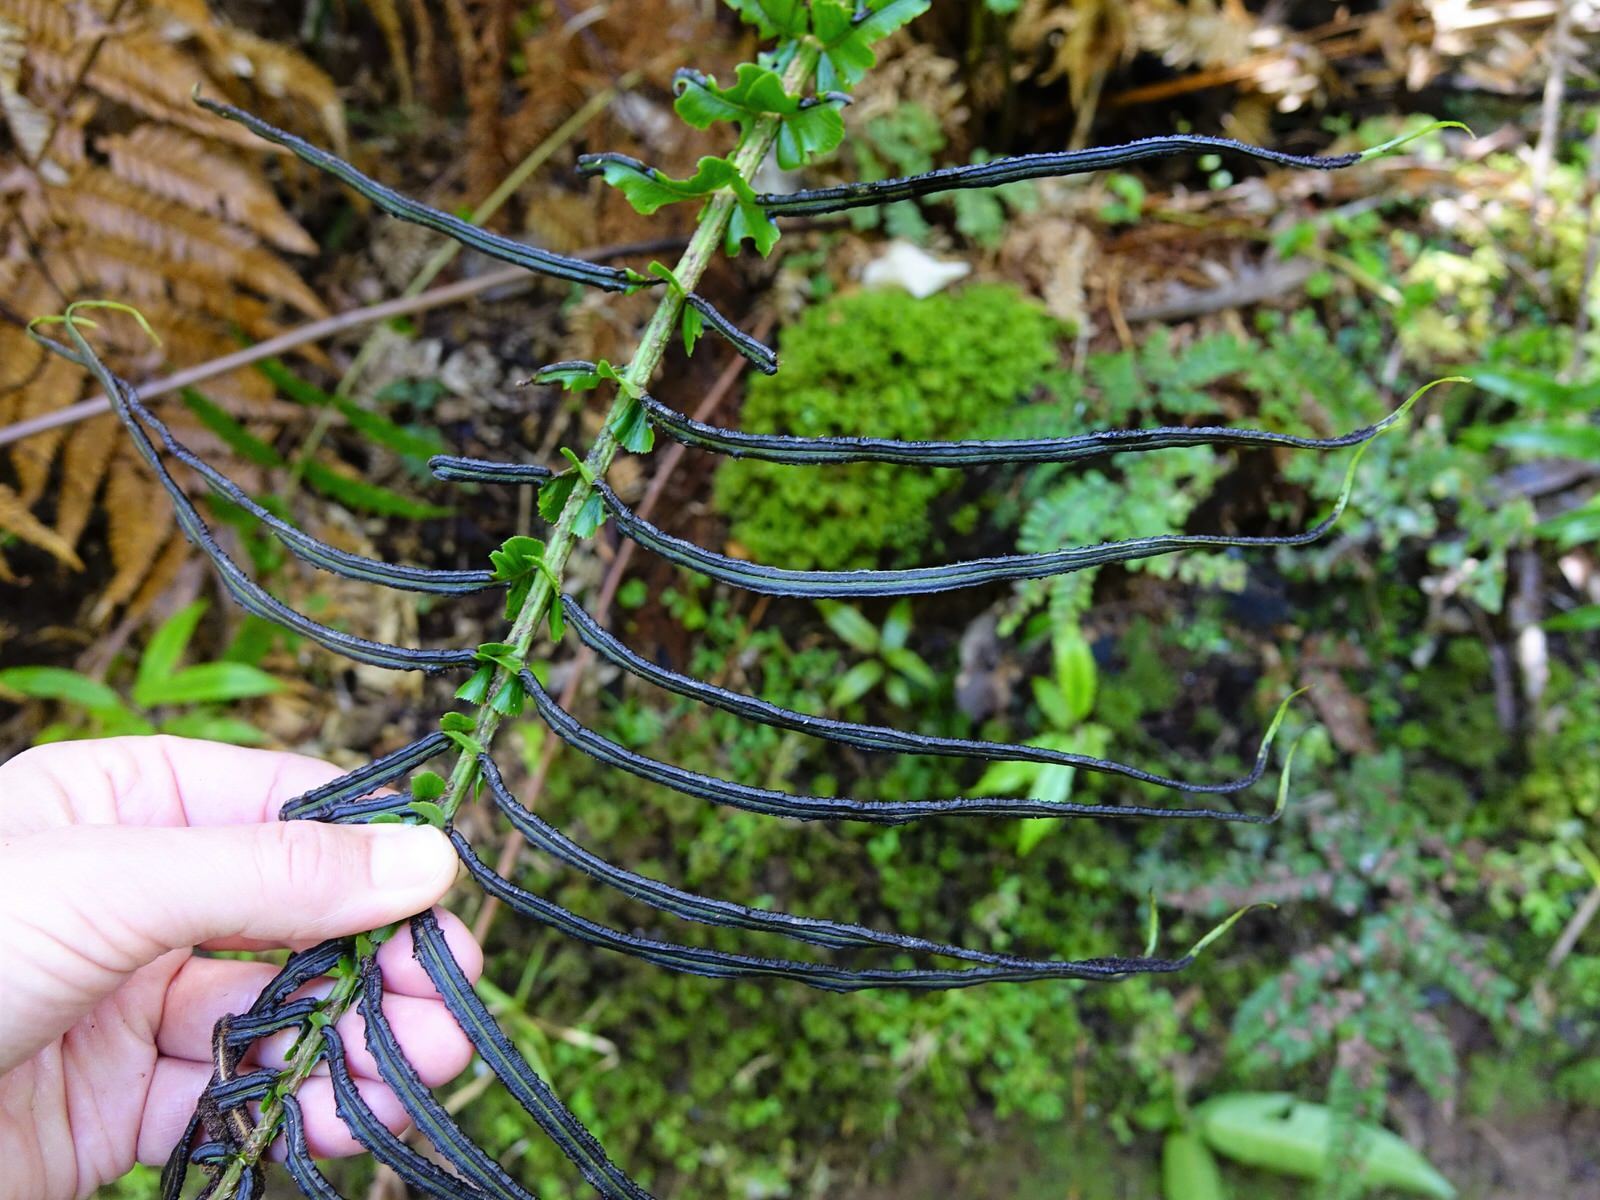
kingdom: Plantae
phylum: Tracheophyta
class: Polypodiopsida
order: Polypodiales
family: Blechnaceae
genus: Parablechnum
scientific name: Parablechnum novae-zelandiae
